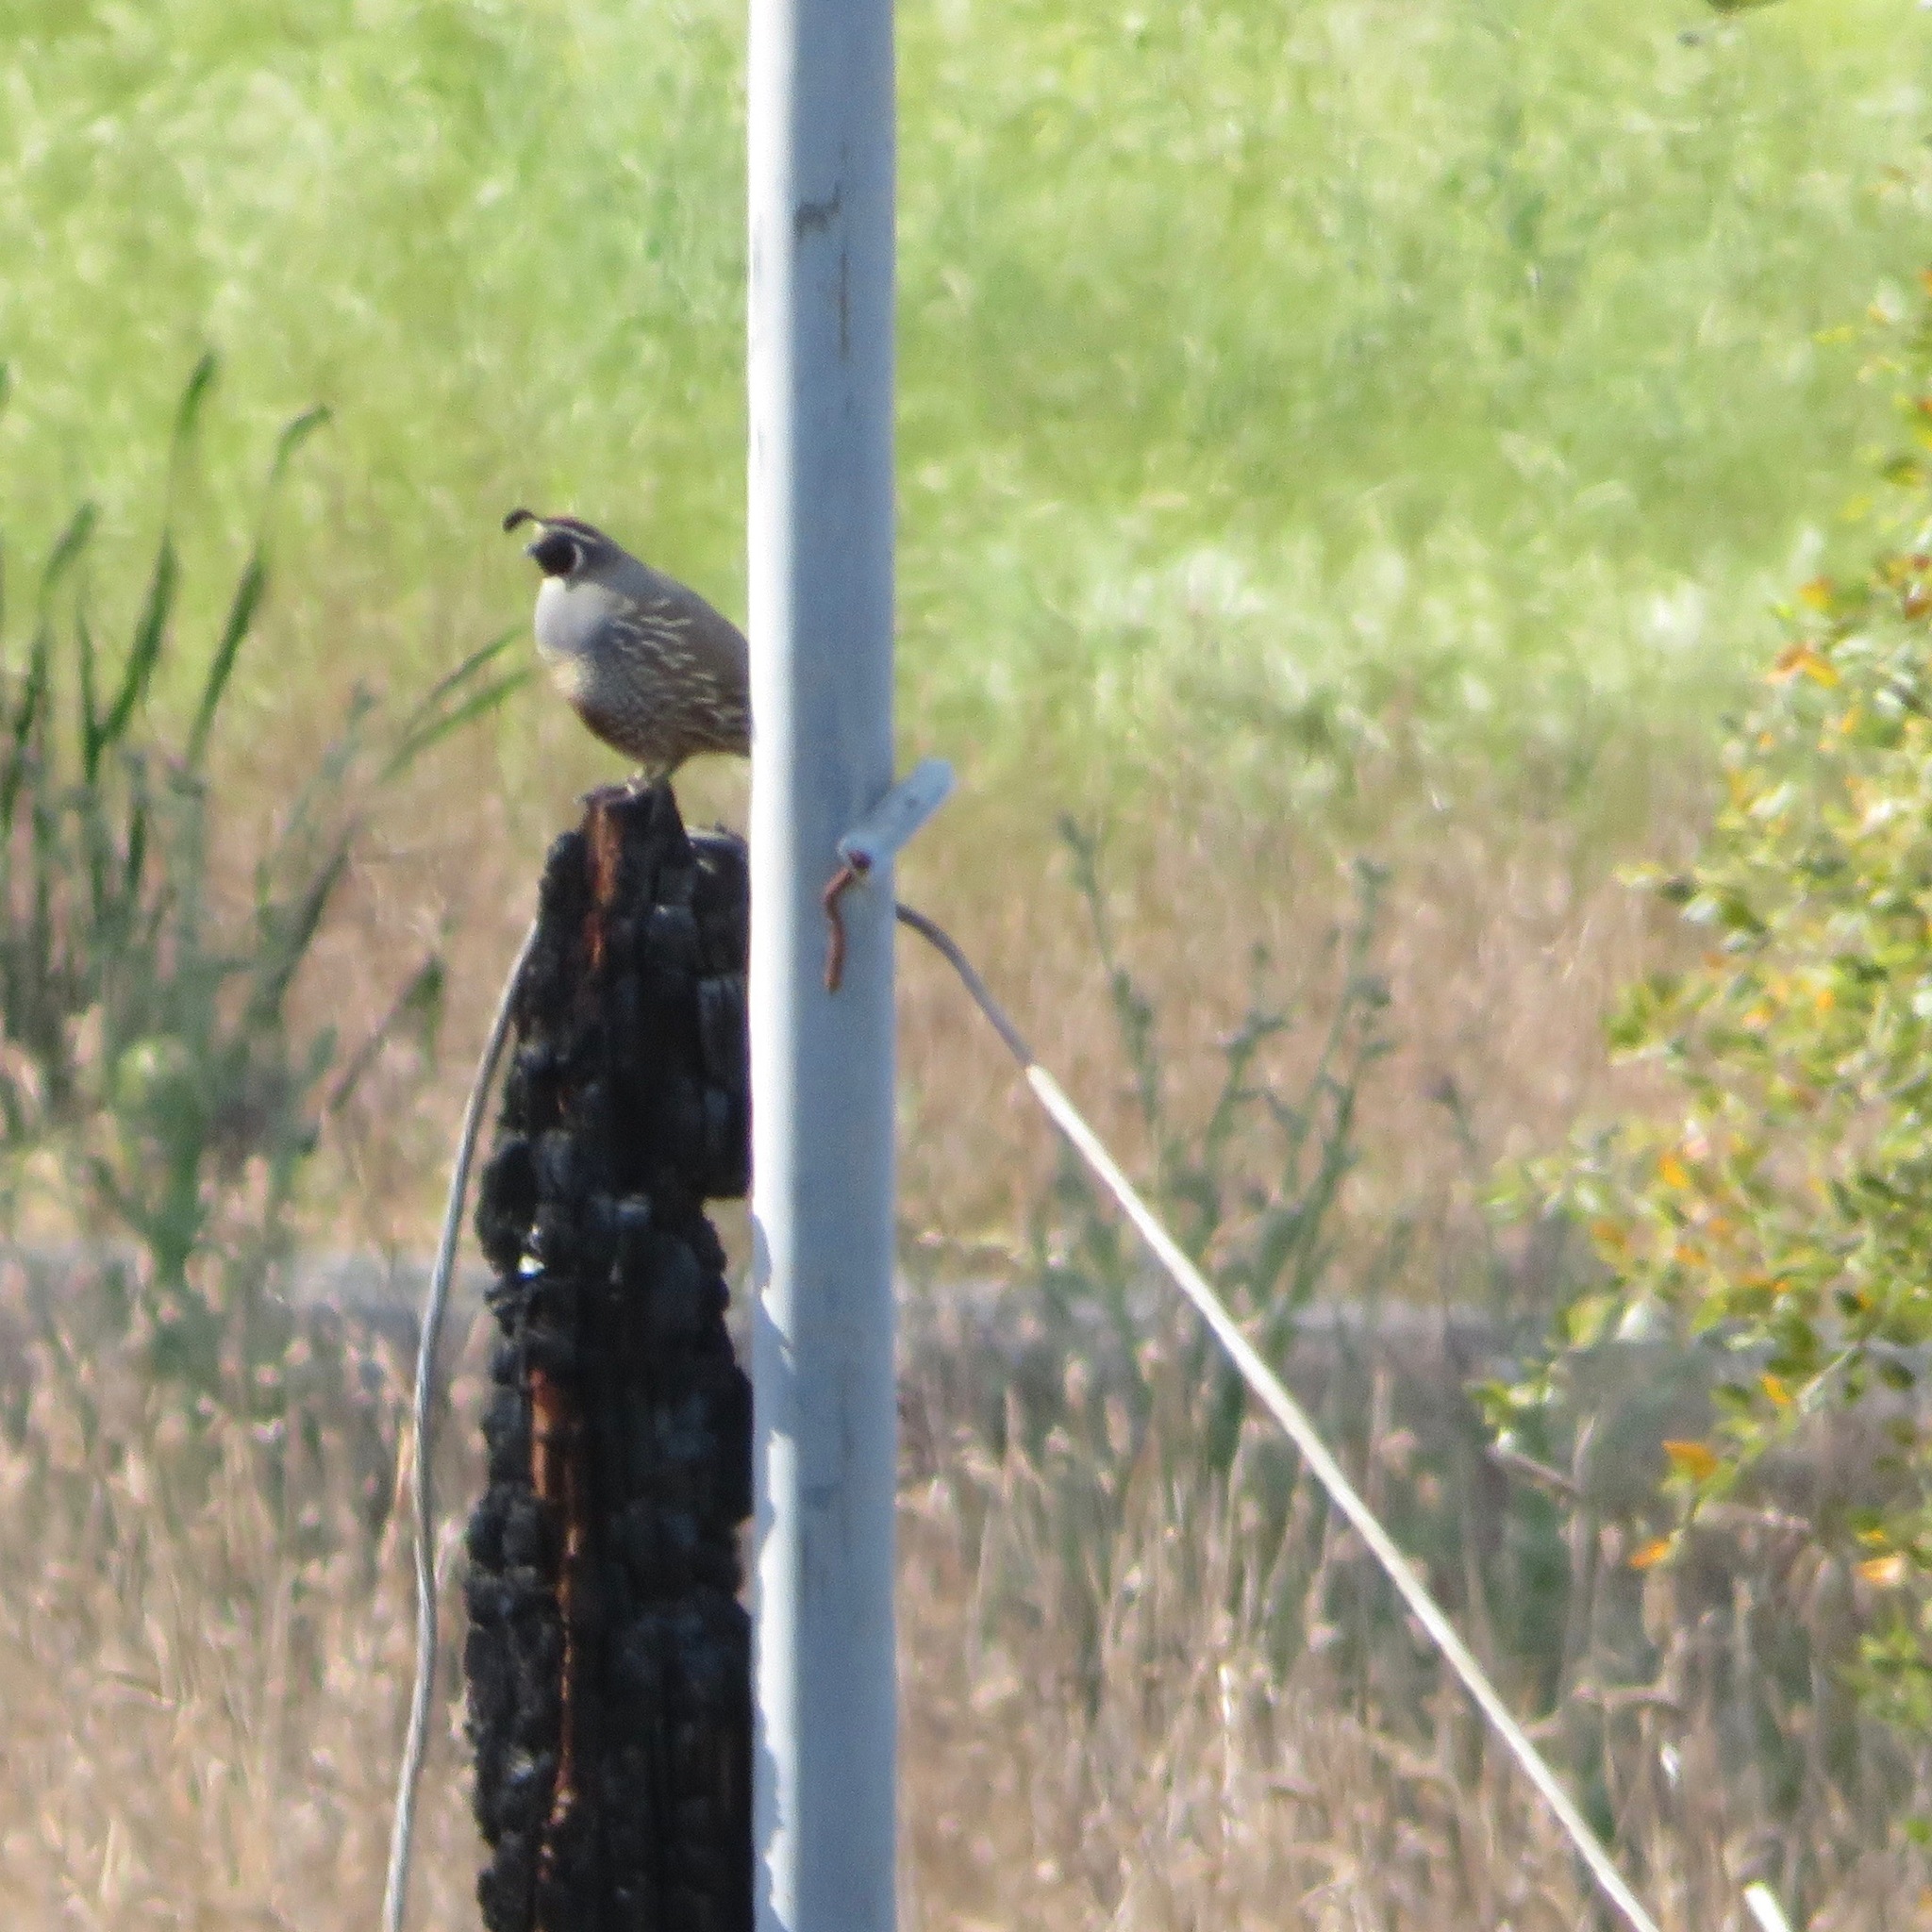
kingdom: Animalia
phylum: Chordata
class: Aves
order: Galliformes
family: Odontophoridae
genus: Callipepla
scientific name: Callipepla californica
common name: California quail
